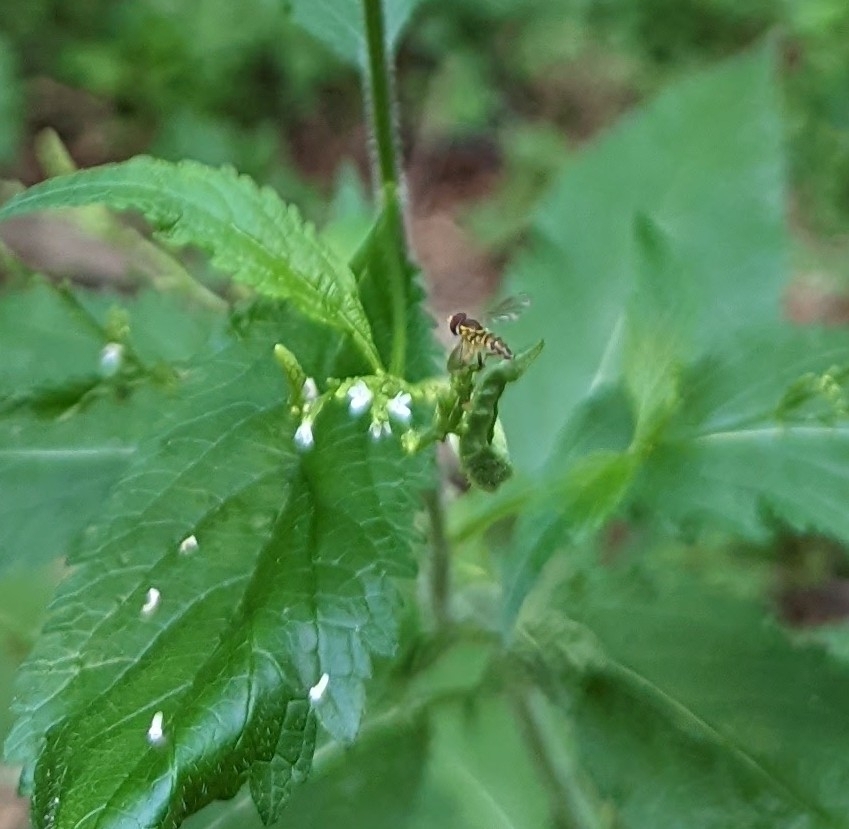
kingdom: Animalia
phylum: Arthropoda
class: Insecta
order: Diptera
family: Syrphidae
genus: Toxomerus
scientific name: Toxomerus geminatus
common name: Eastern calligrapher
